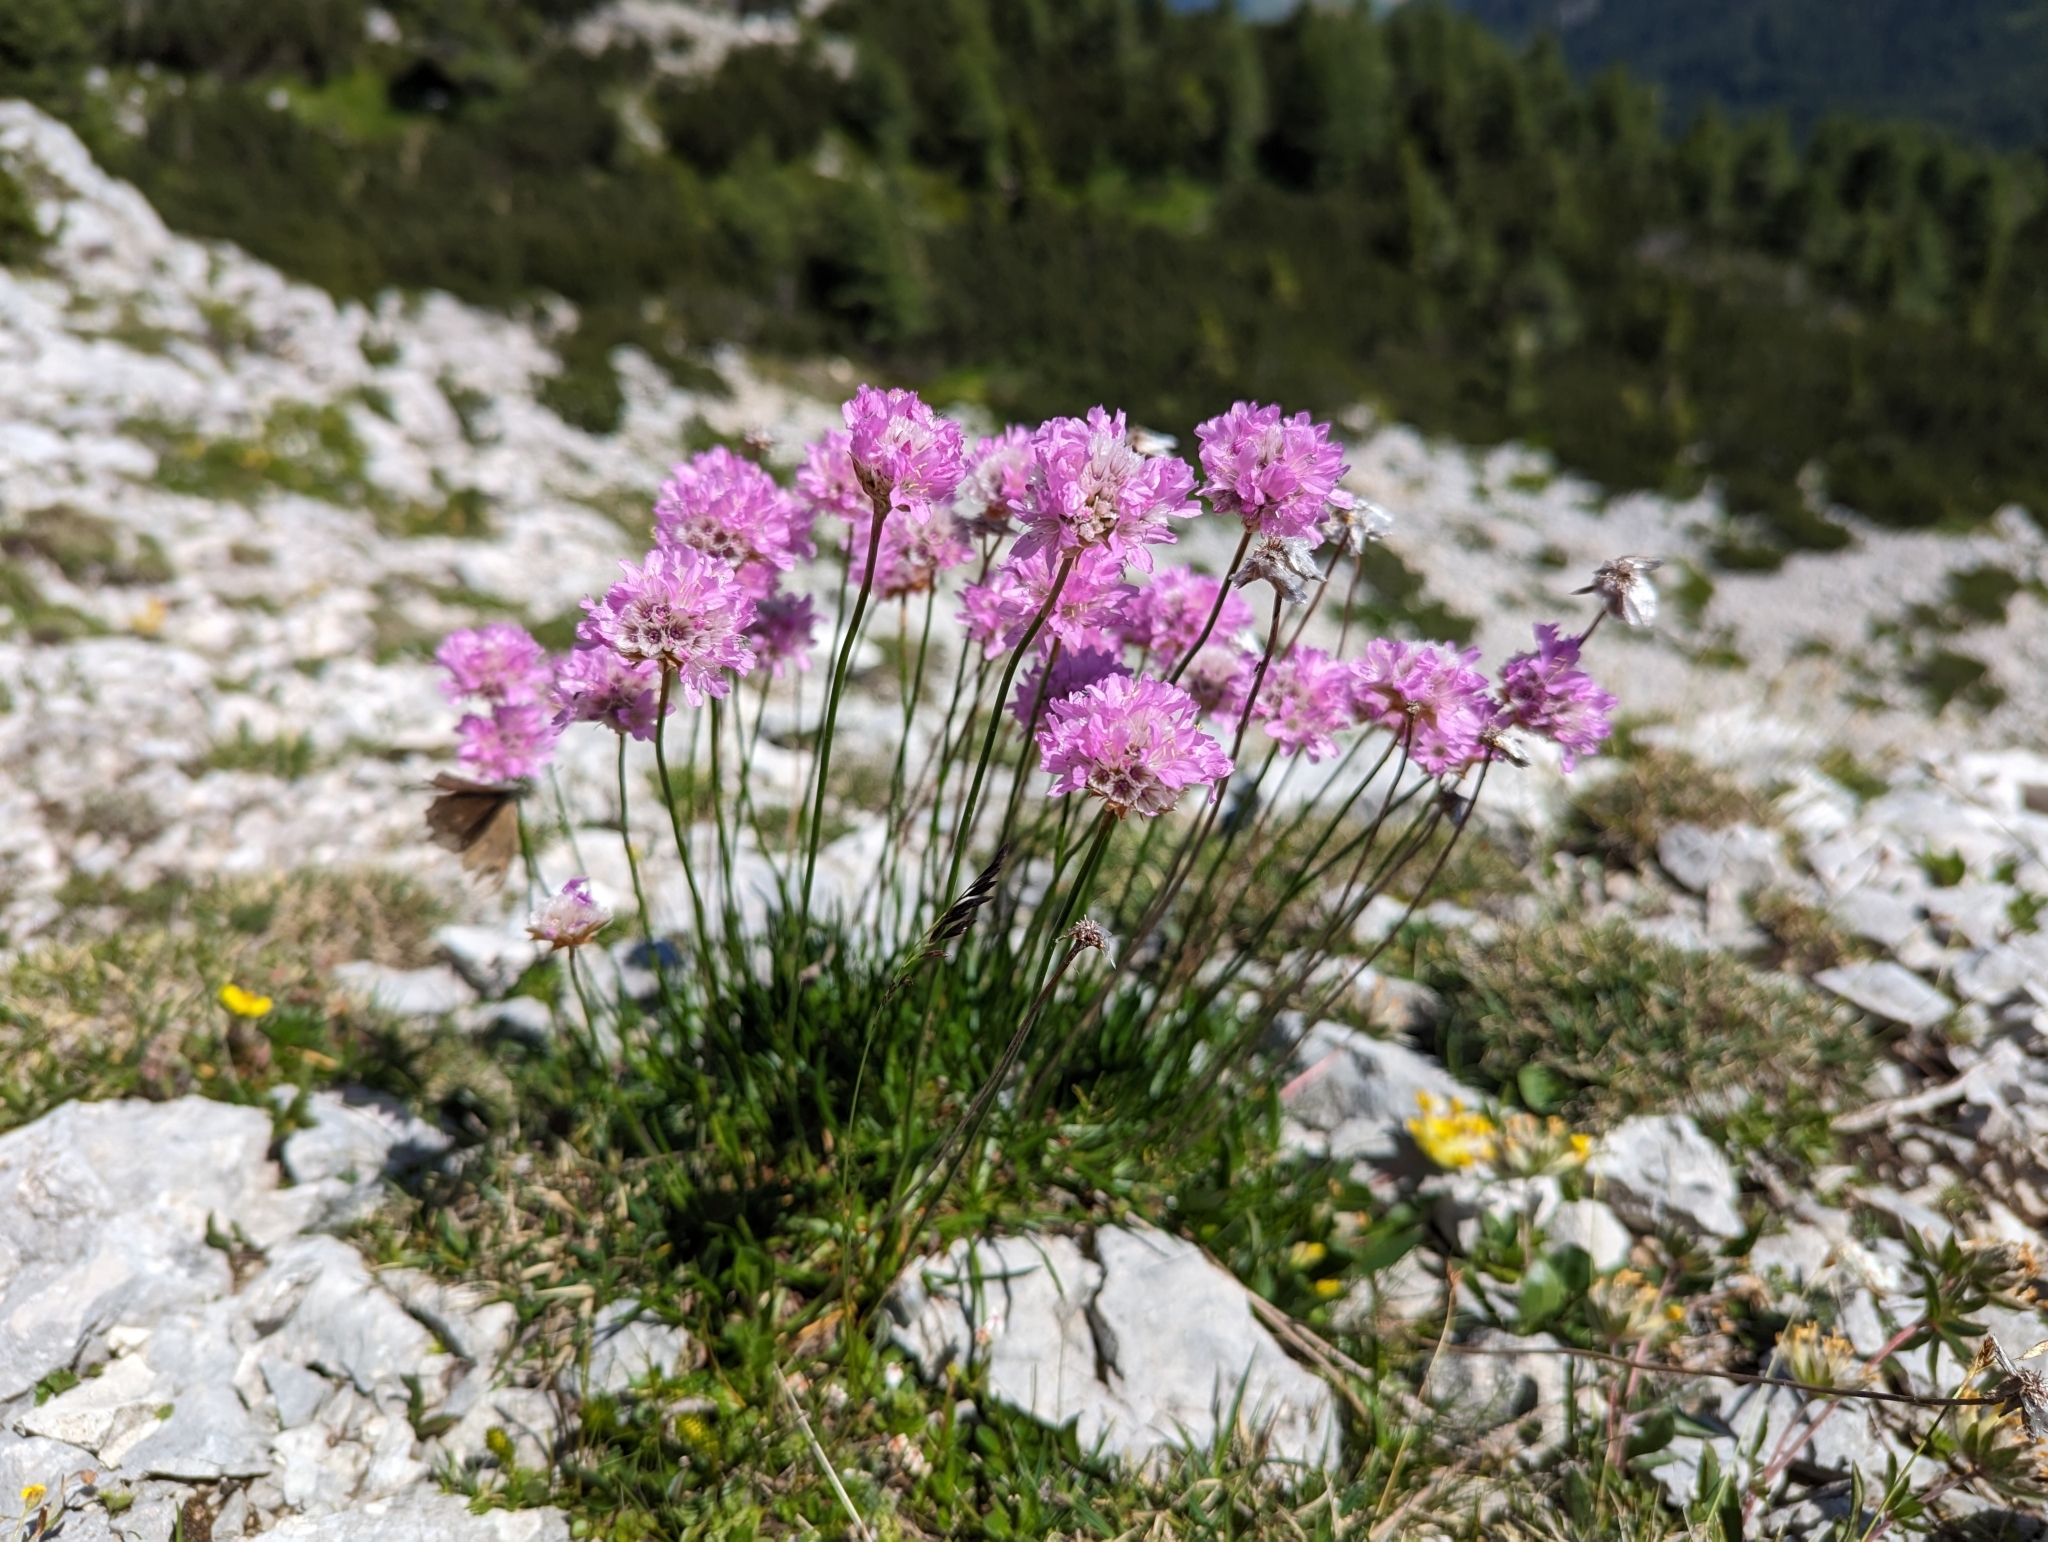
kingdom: Plantae
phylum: Tracheophyta
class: Magnoliopsida
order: Caryophyllales
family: Plumbaginaceae
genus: Armeria
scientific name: Armeria alpina
